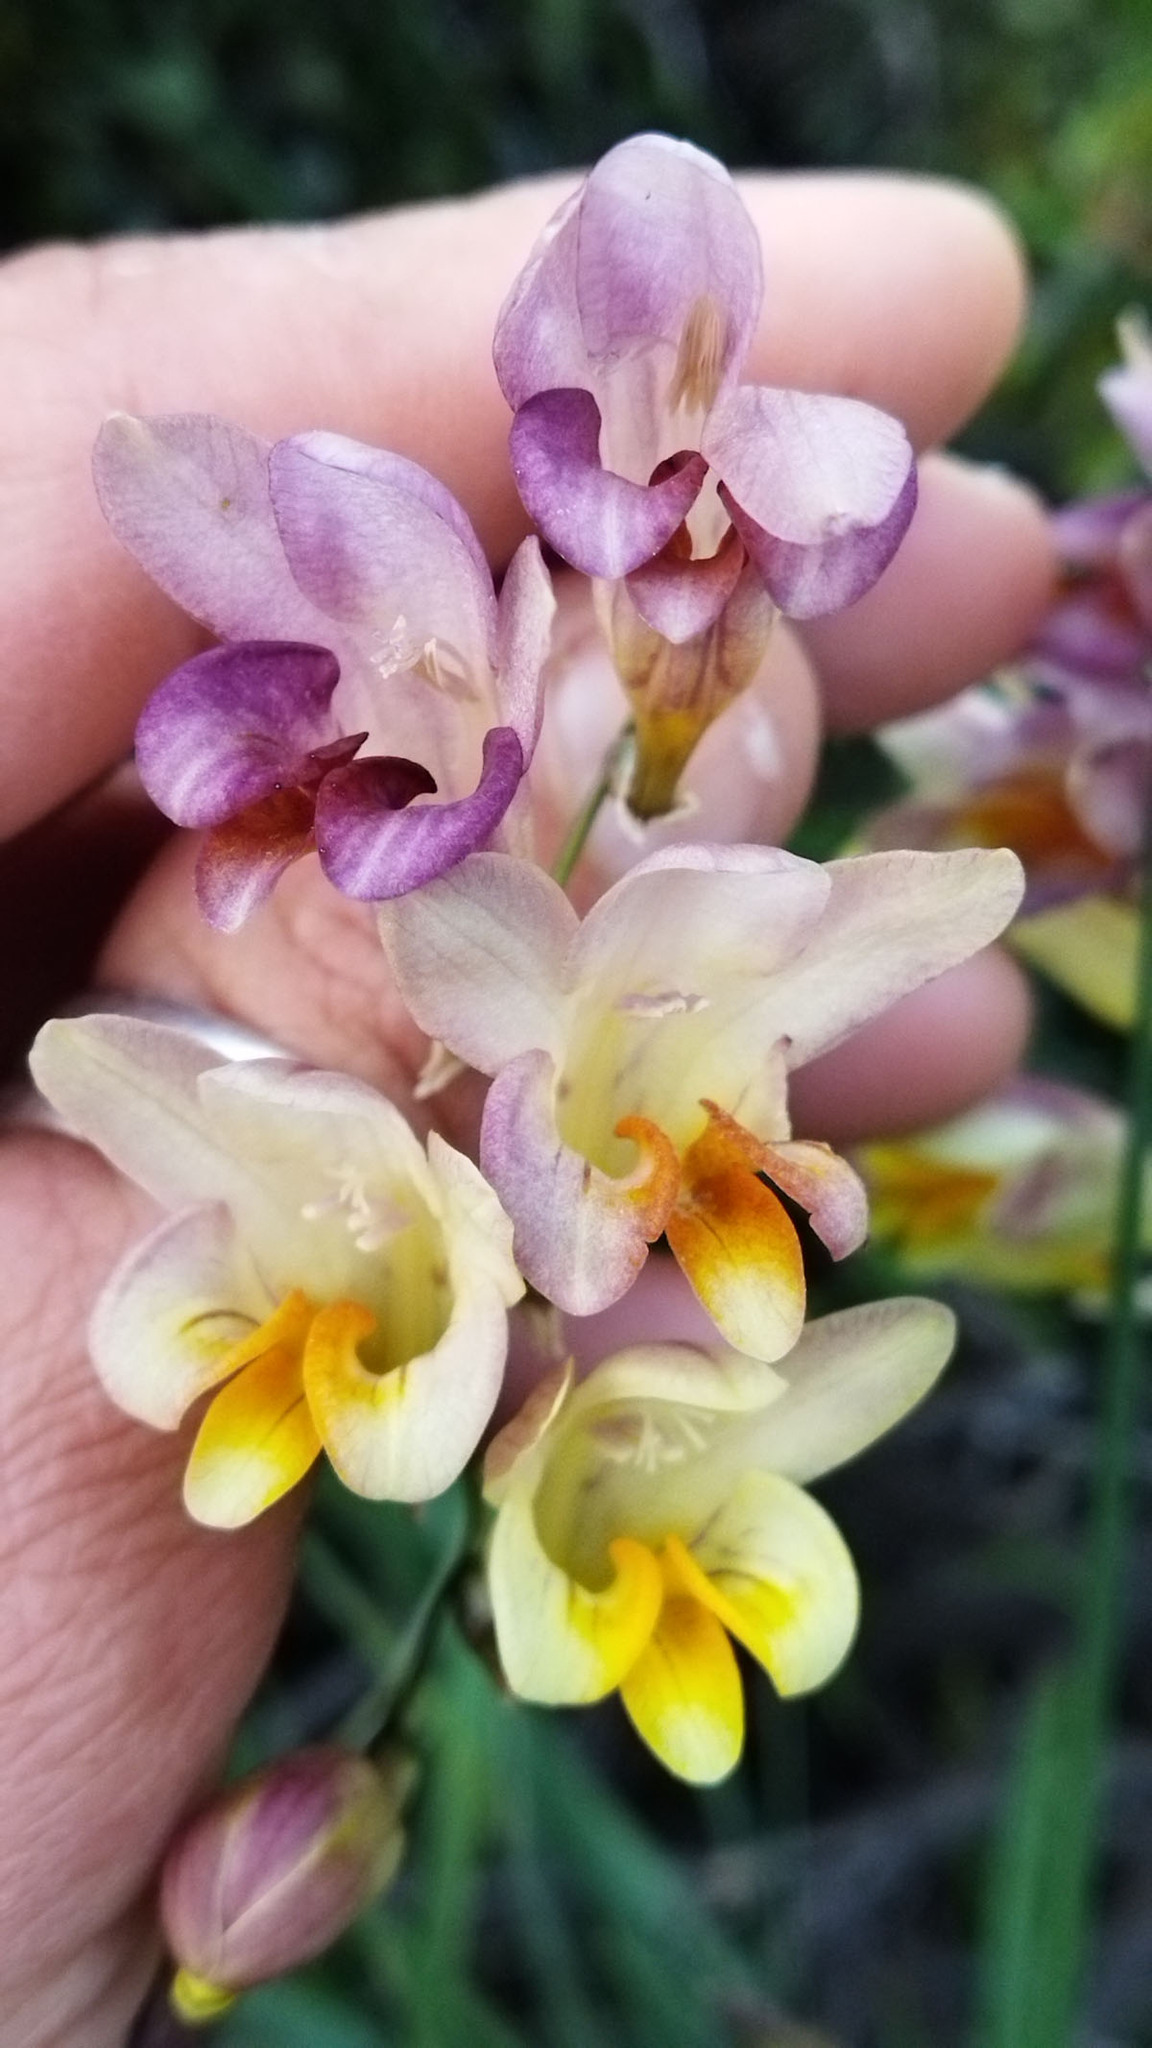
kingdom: Plantae
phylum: Tracheophyta
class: Liliopsida
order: Asparagales
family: Iridaceae
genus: Freesia
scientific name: Freesia refracta
